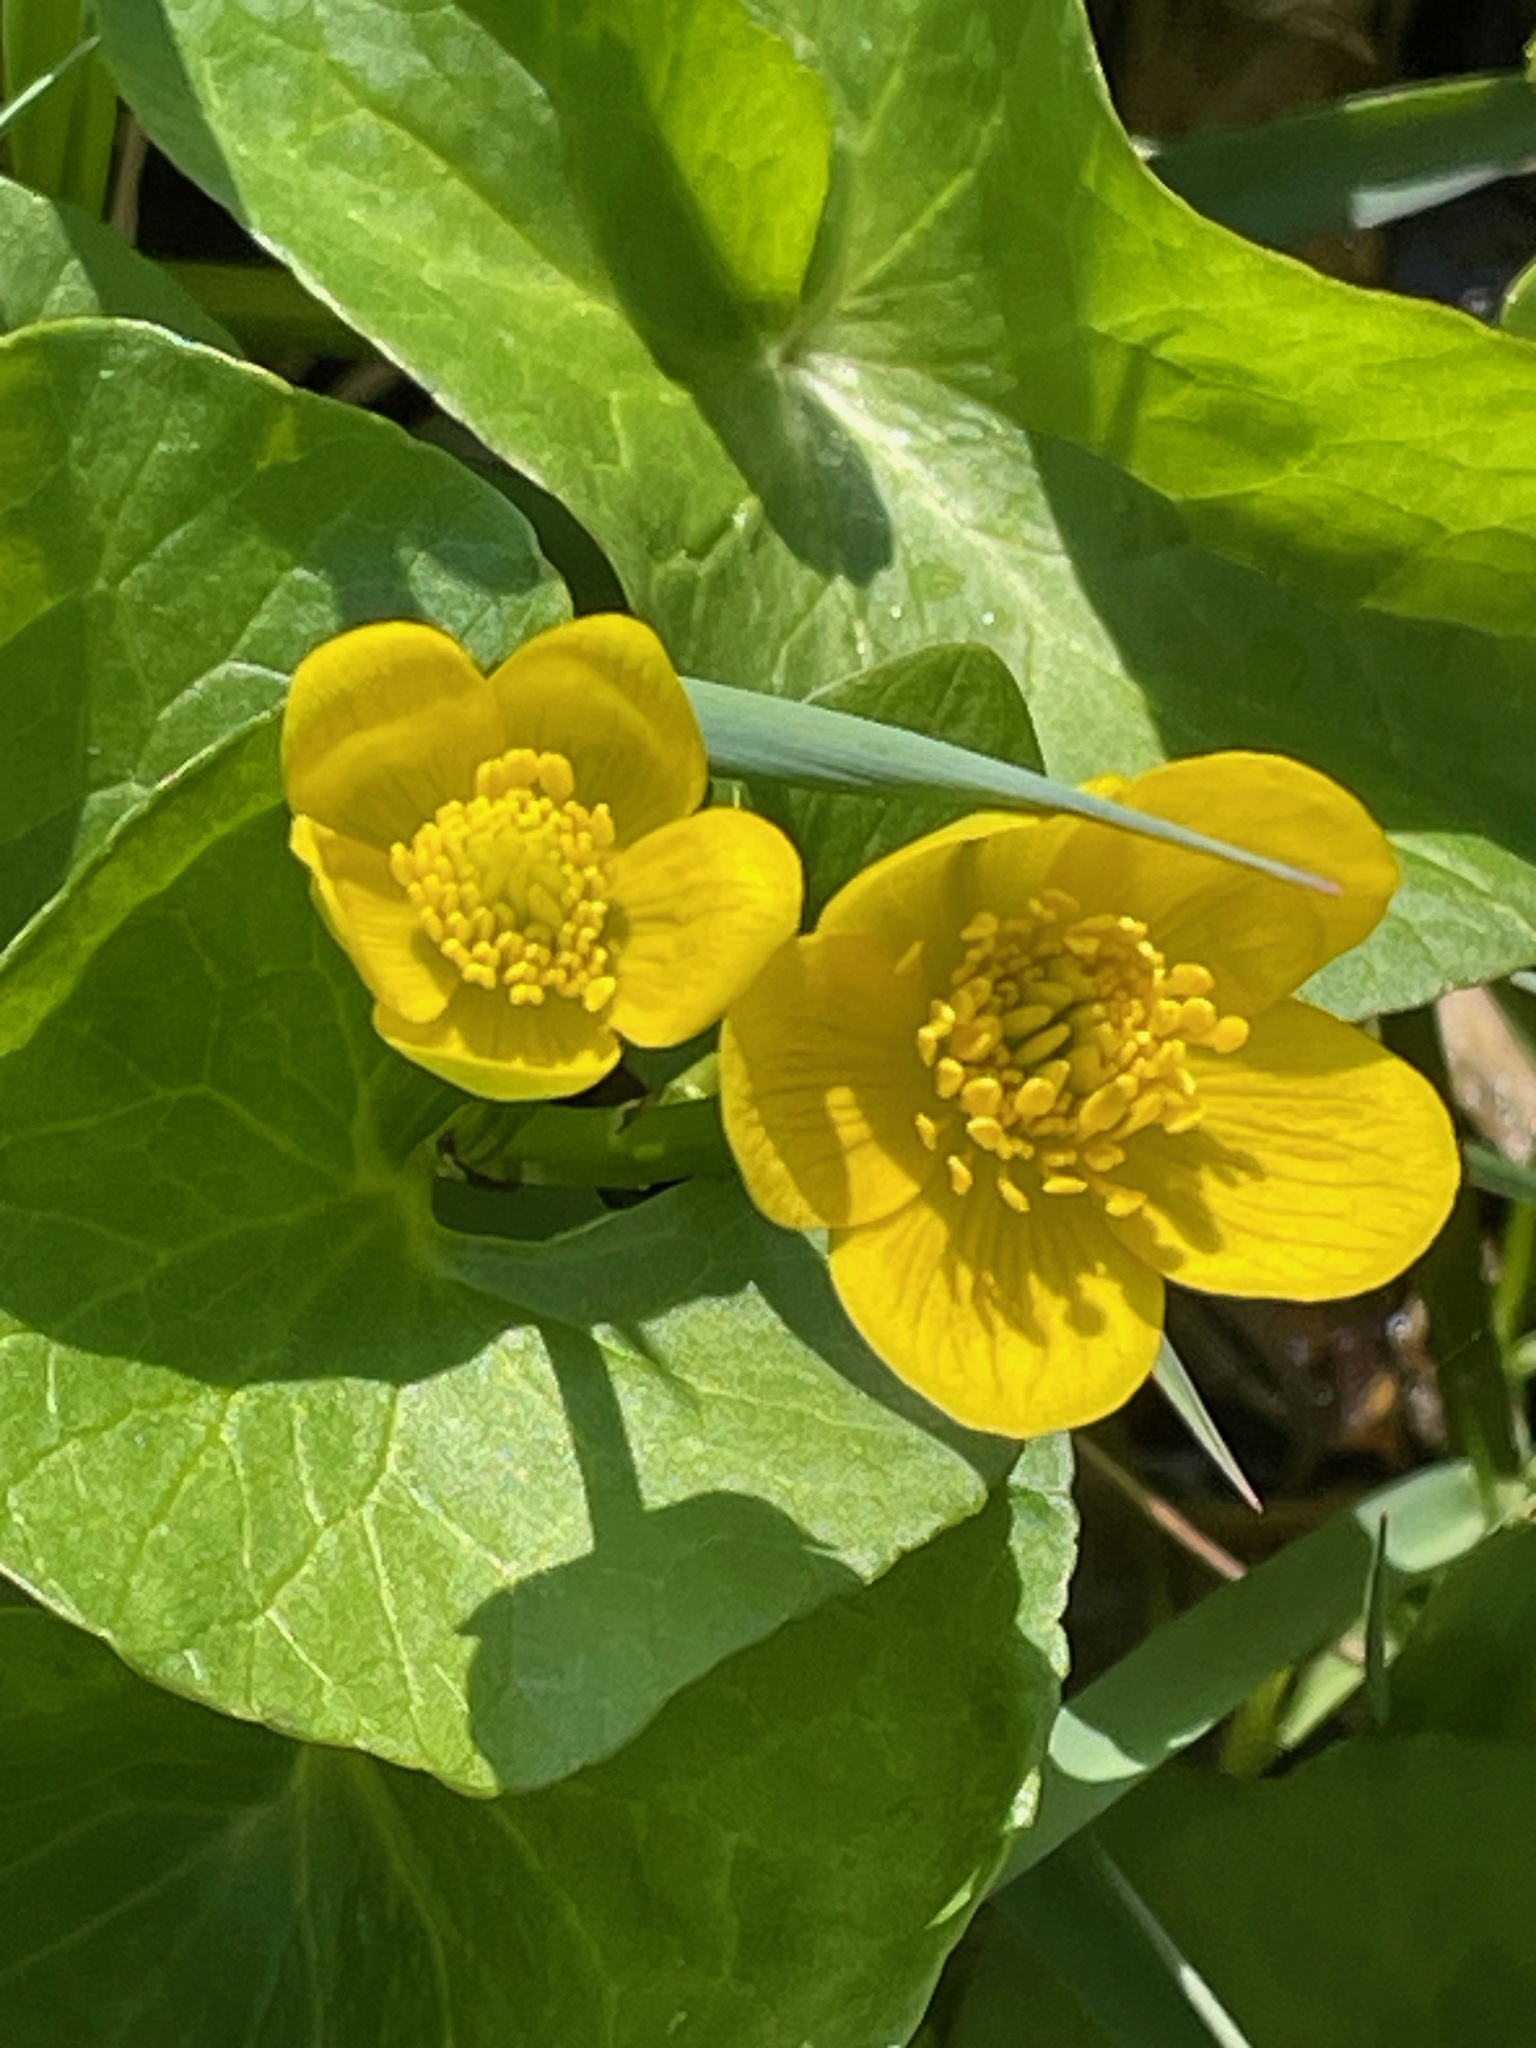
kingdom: Plantae
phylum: Tracheophyta
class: Magnoliopsida
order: Ranunculales
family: Ranunculaceae
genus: Caltha
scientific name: Caltha palustris
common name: Marsh marigold
